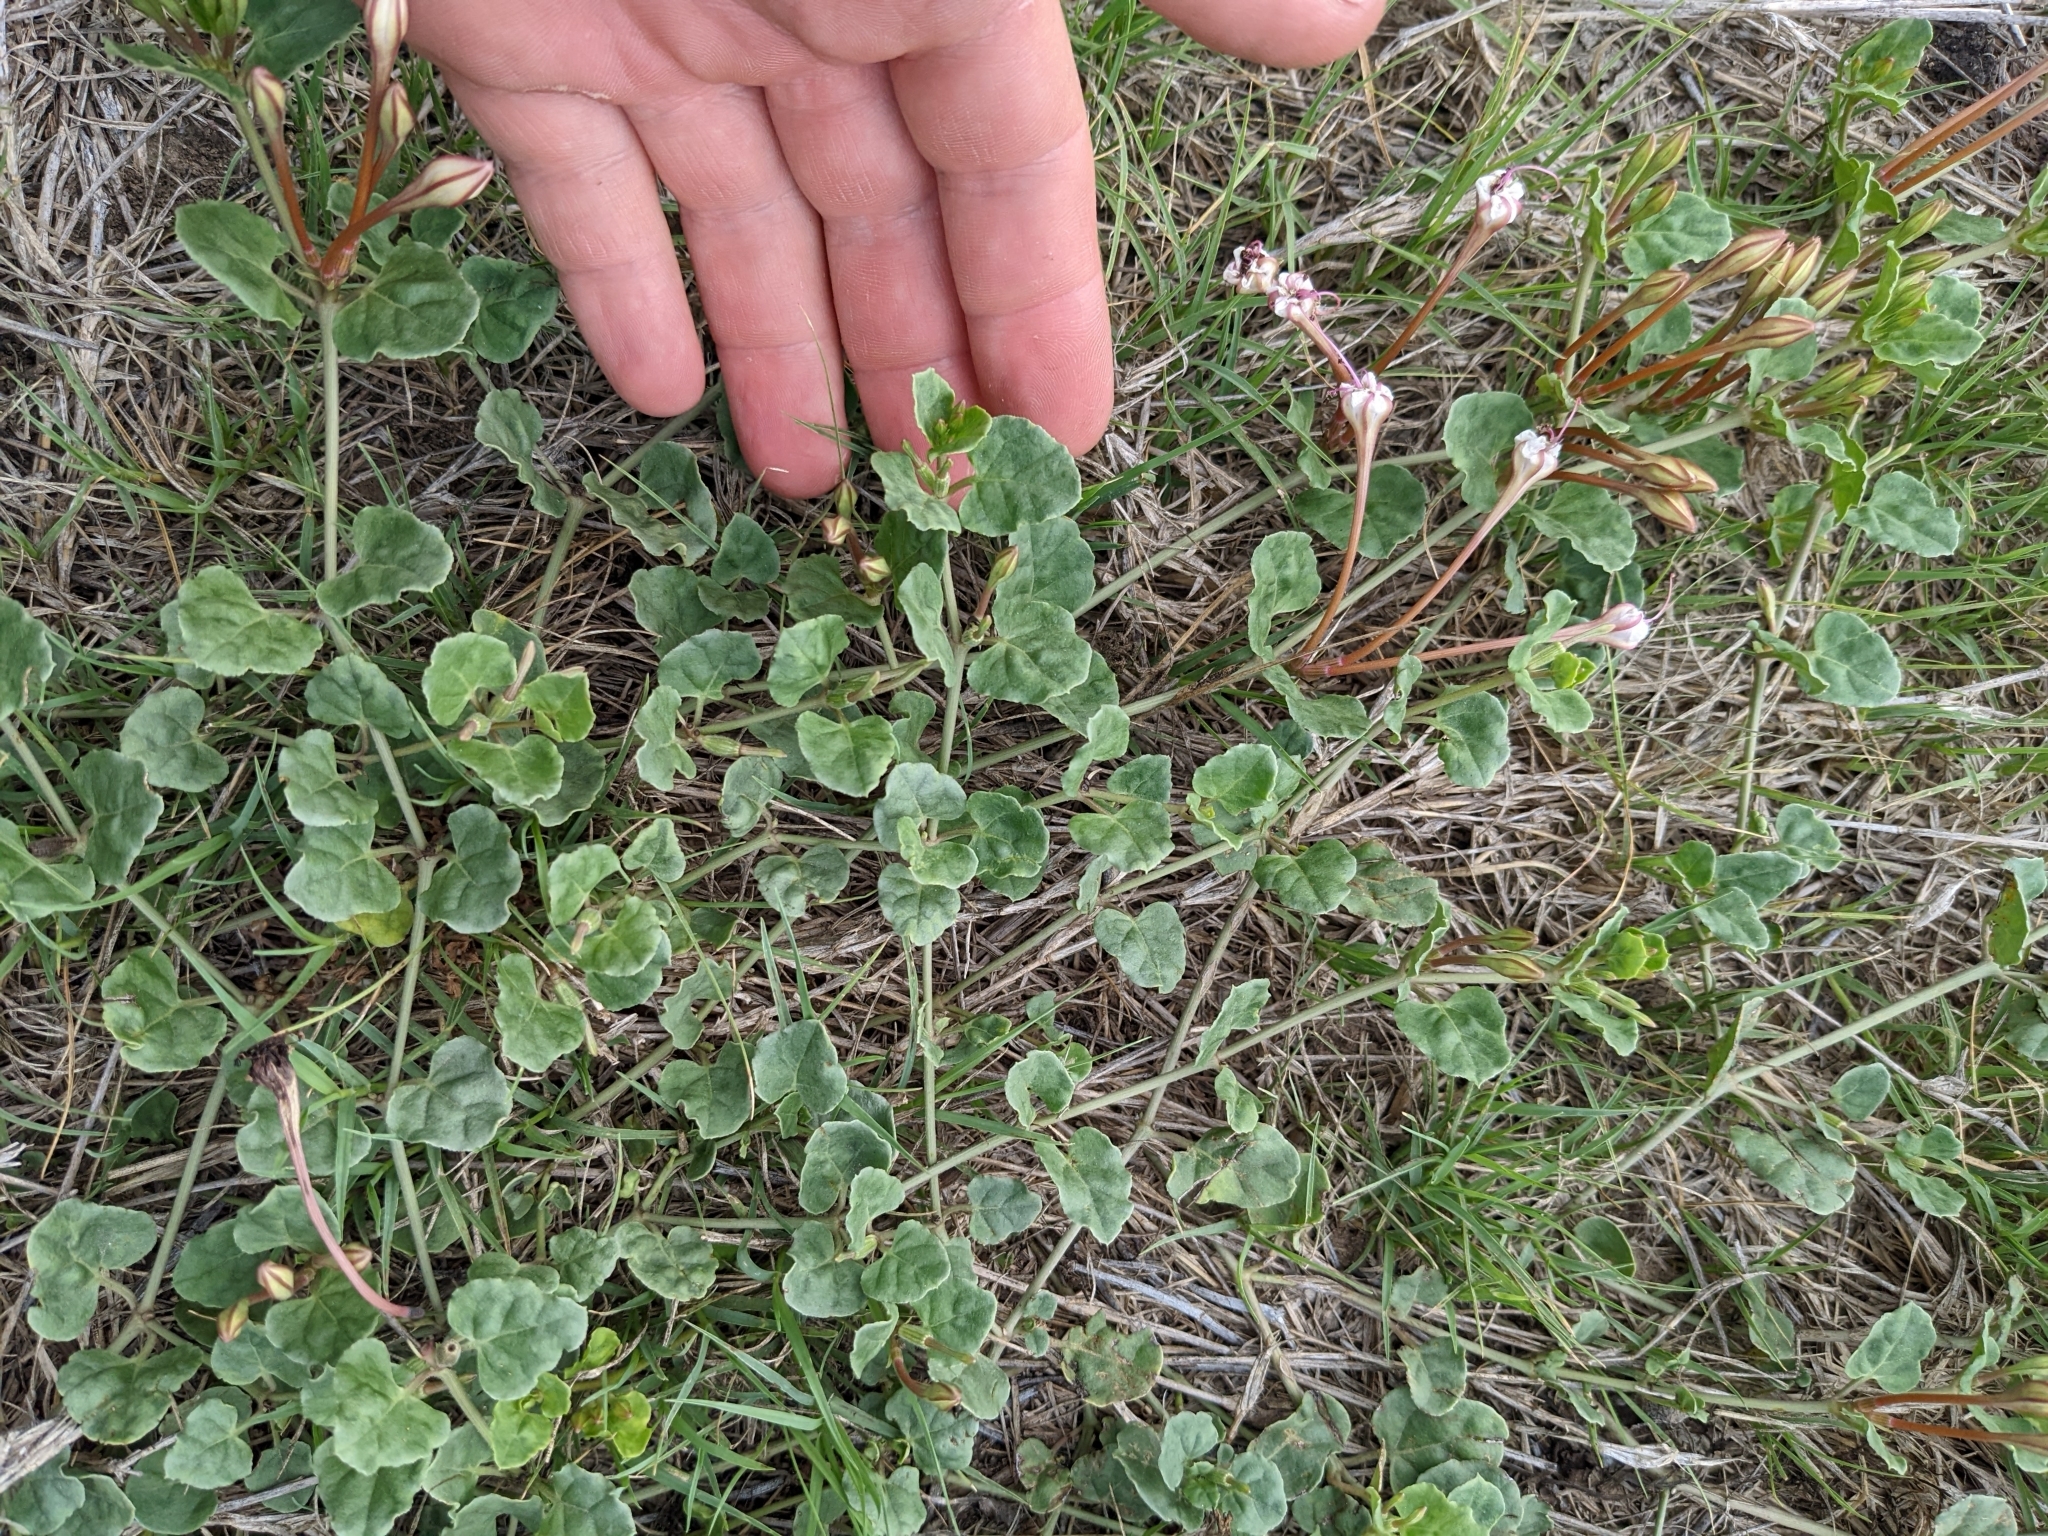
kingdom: Plantae
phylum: Tracheophyta
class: Magnoliopsida
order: Caryophyllales
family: Nyctaginaceae
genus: Acleisanthes
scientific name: Acleisanthes obtusa
